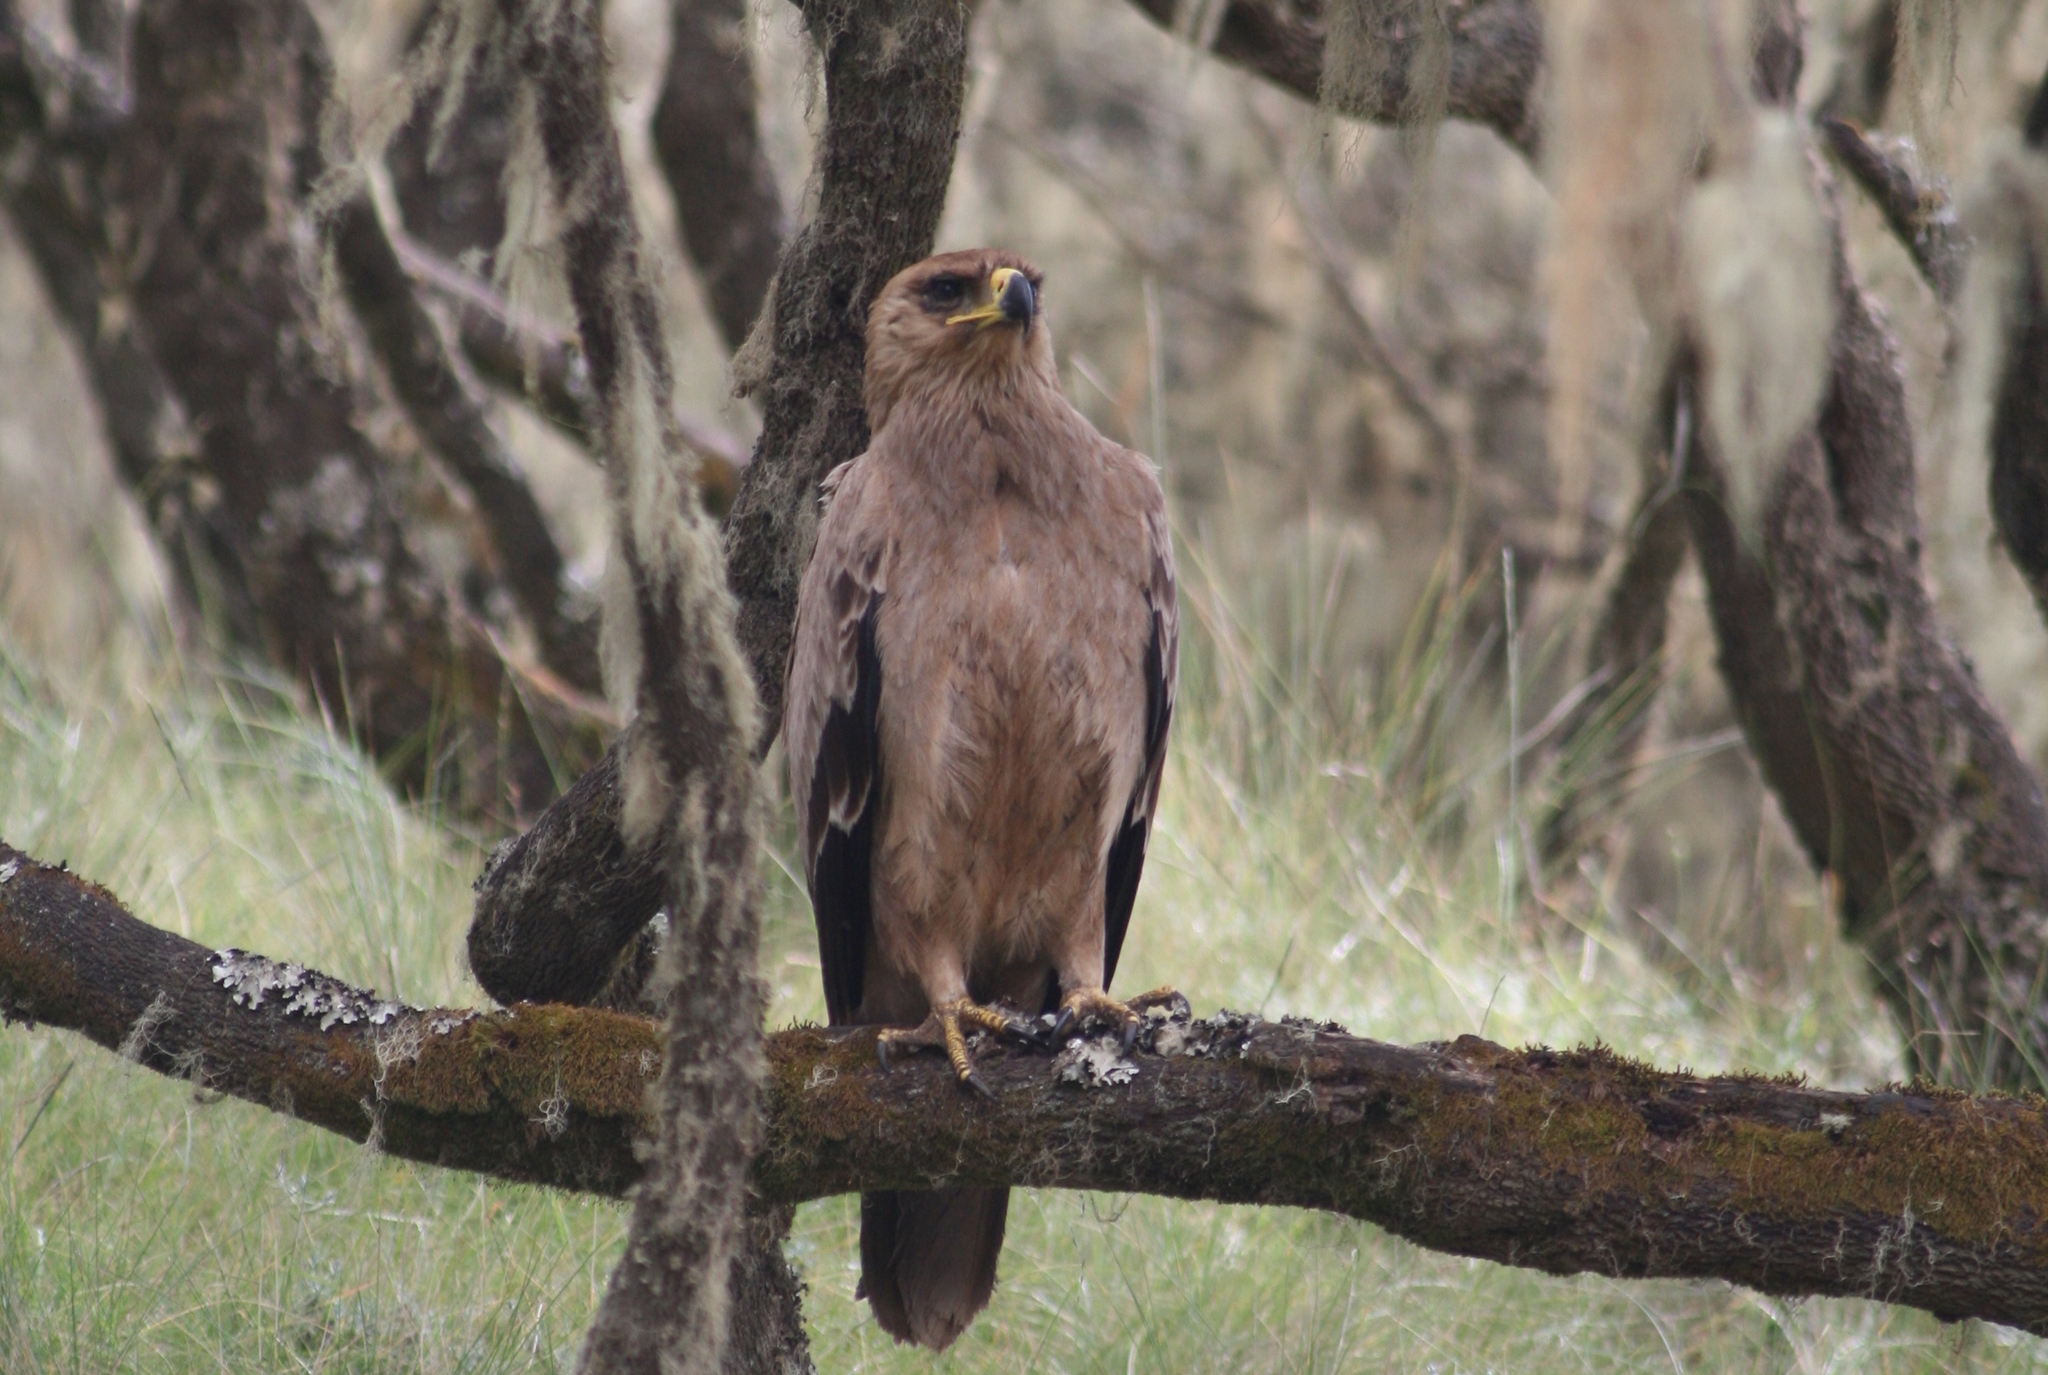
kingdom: Animalia
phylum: Chordata
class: Aves
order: Accipitriformes
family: Accipitridae
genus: Aquila
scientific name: Aquila rapax
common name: Tawny eagle
